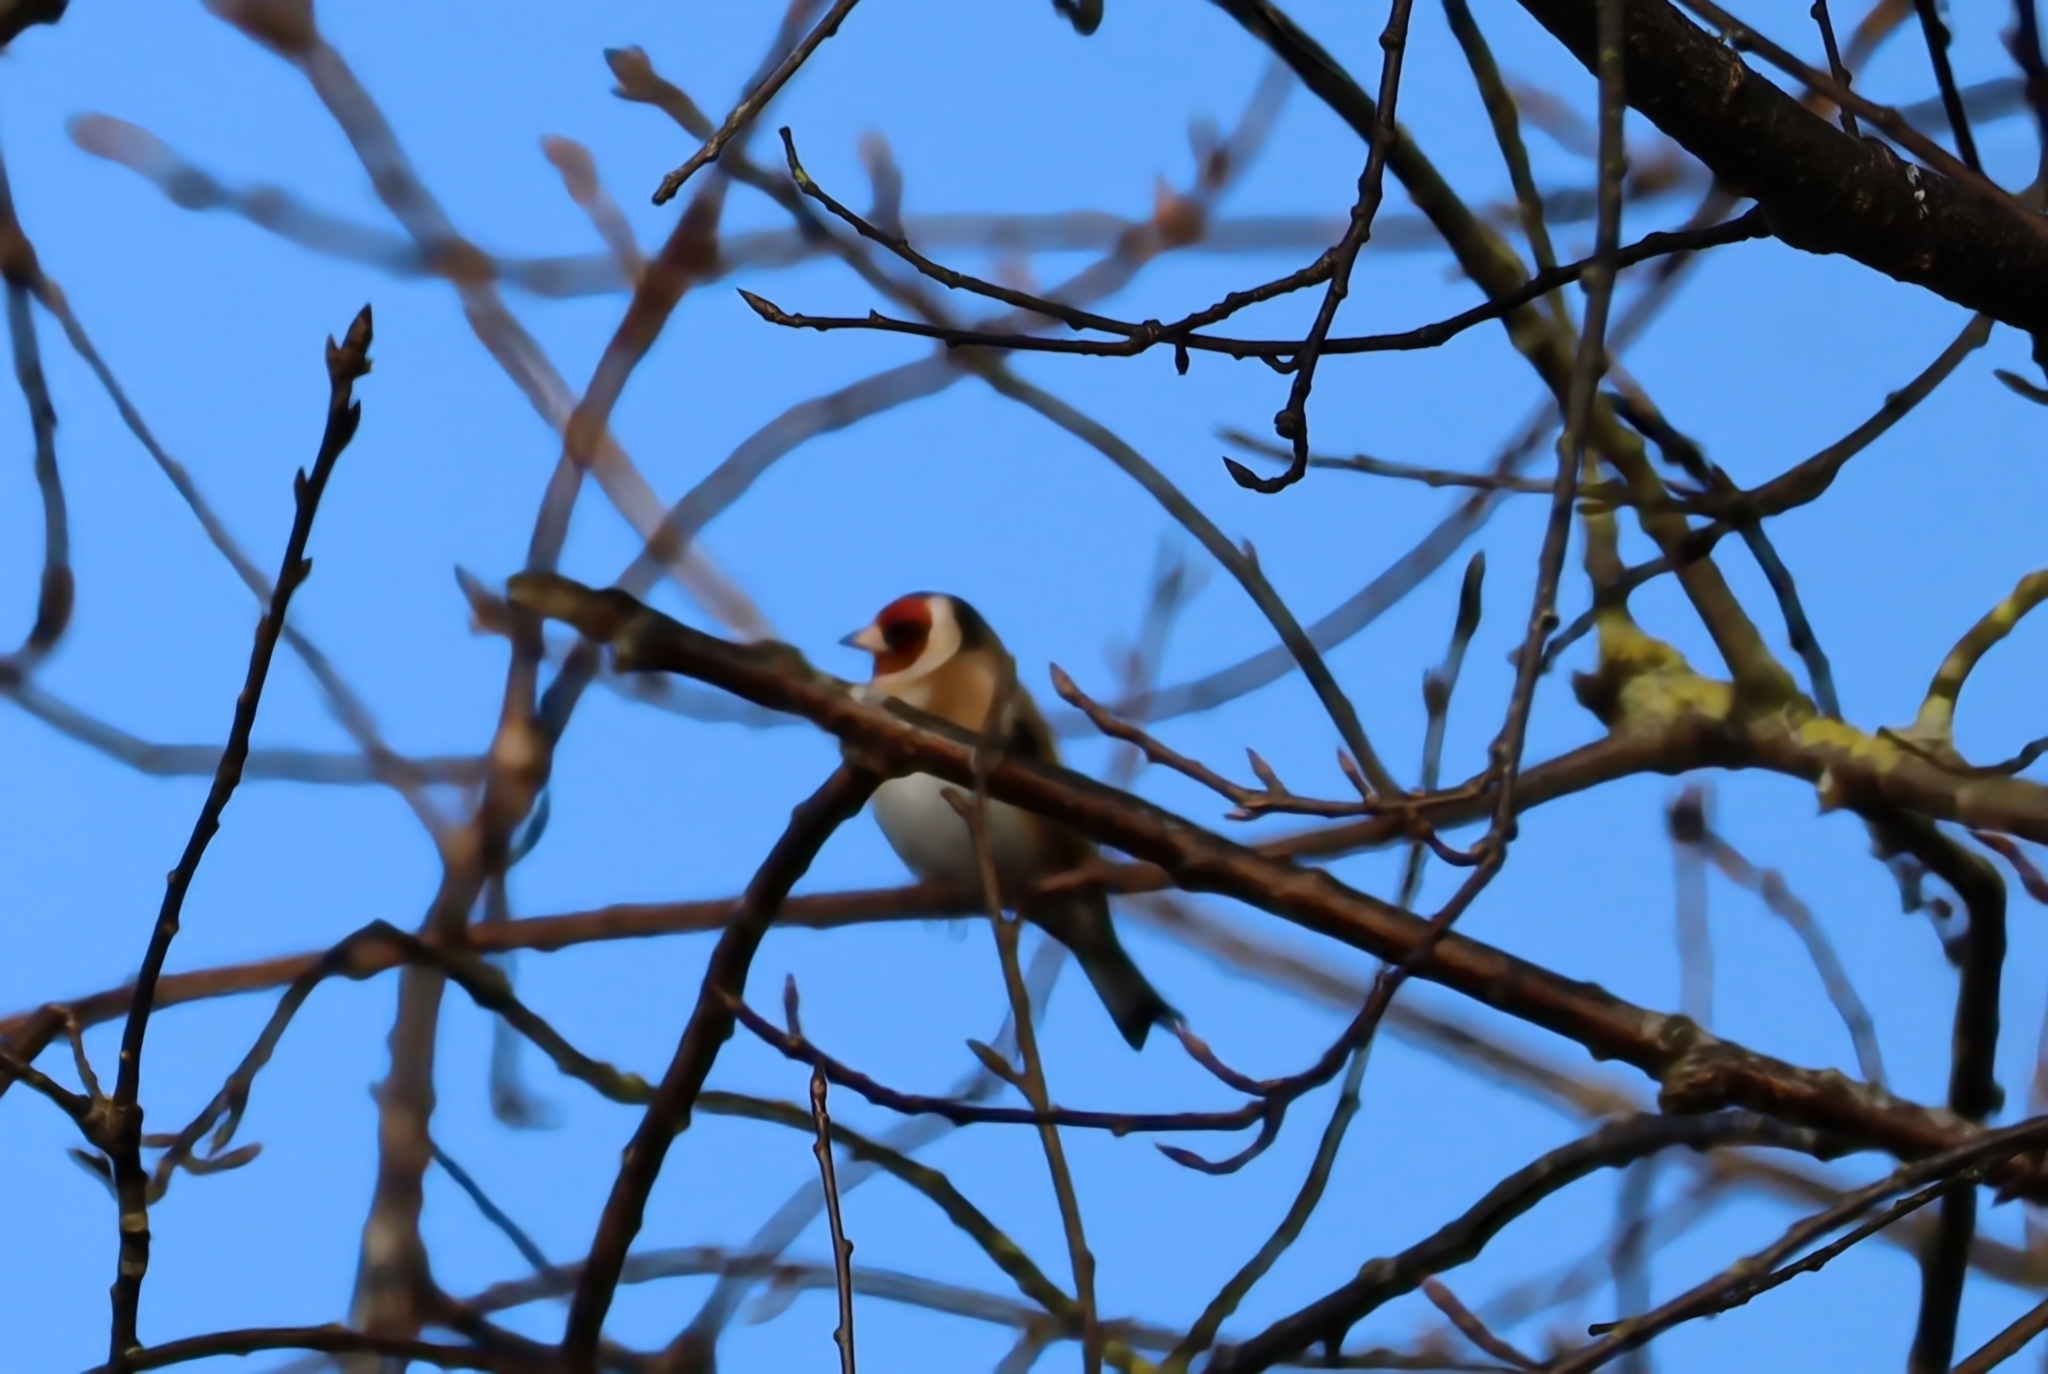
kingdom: Animalia
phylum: Chordata
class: Aves
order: Passeriformes
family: Fringillidae
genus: Carduelis
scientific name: Carduelis carduelis
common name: European goldfinch
